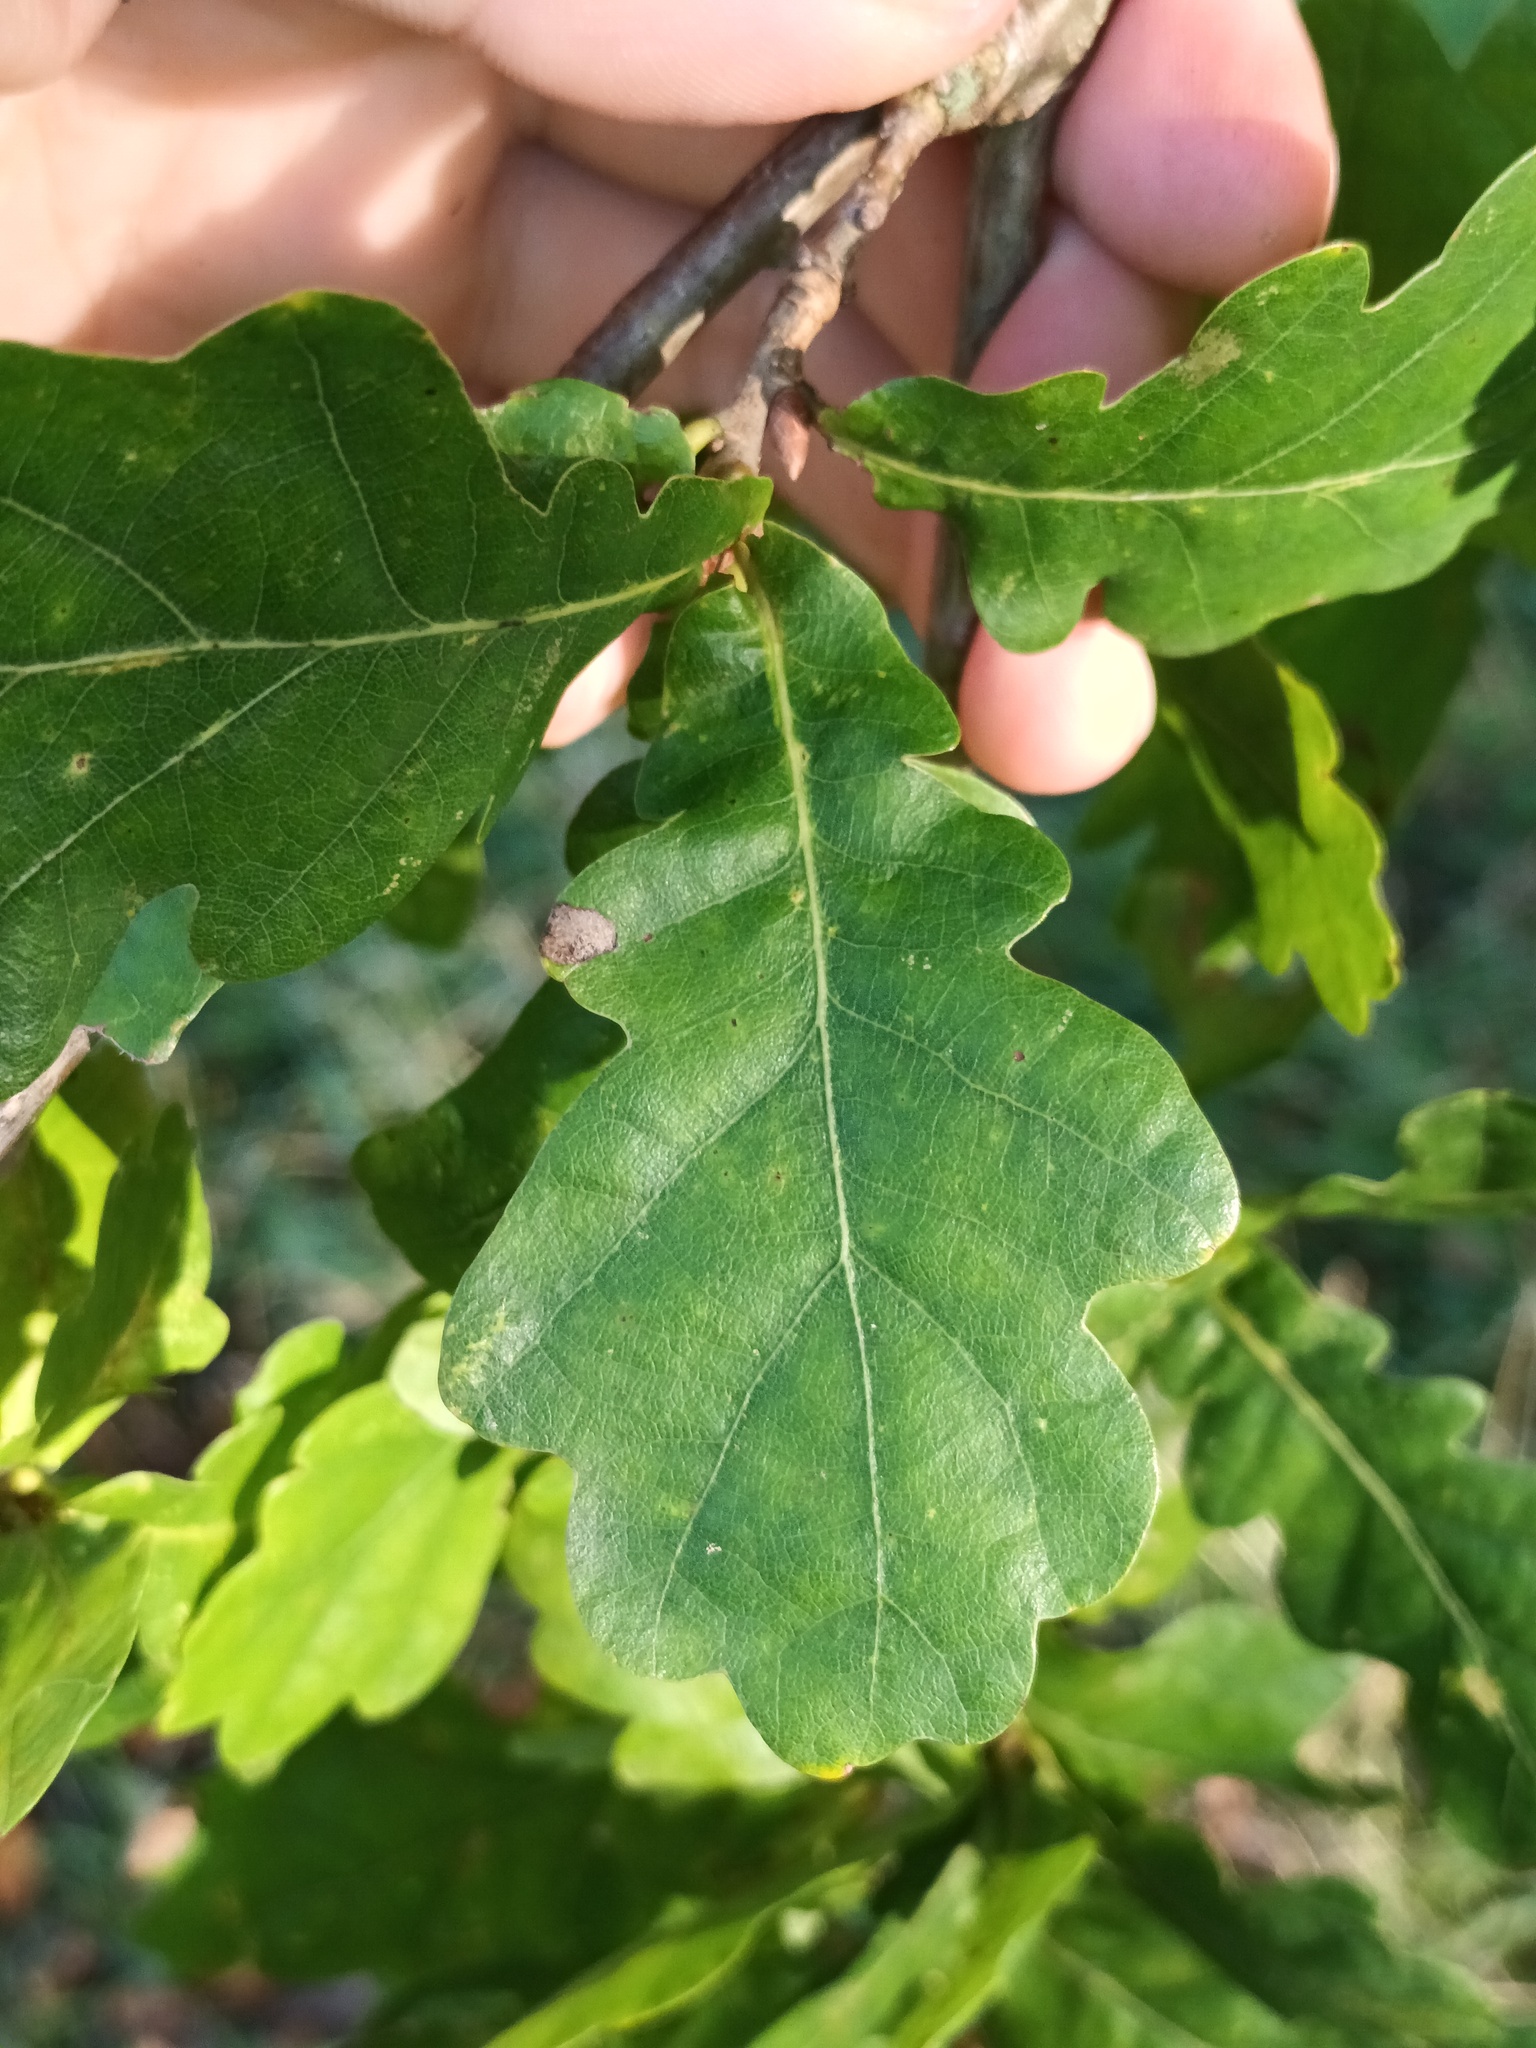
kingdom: Plantae
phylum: Tracheophyta
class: Magnoliopsida
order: Fagales
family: Fagaceae
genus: Quercus
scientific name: Quercus robur
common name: Pedunculate oak
